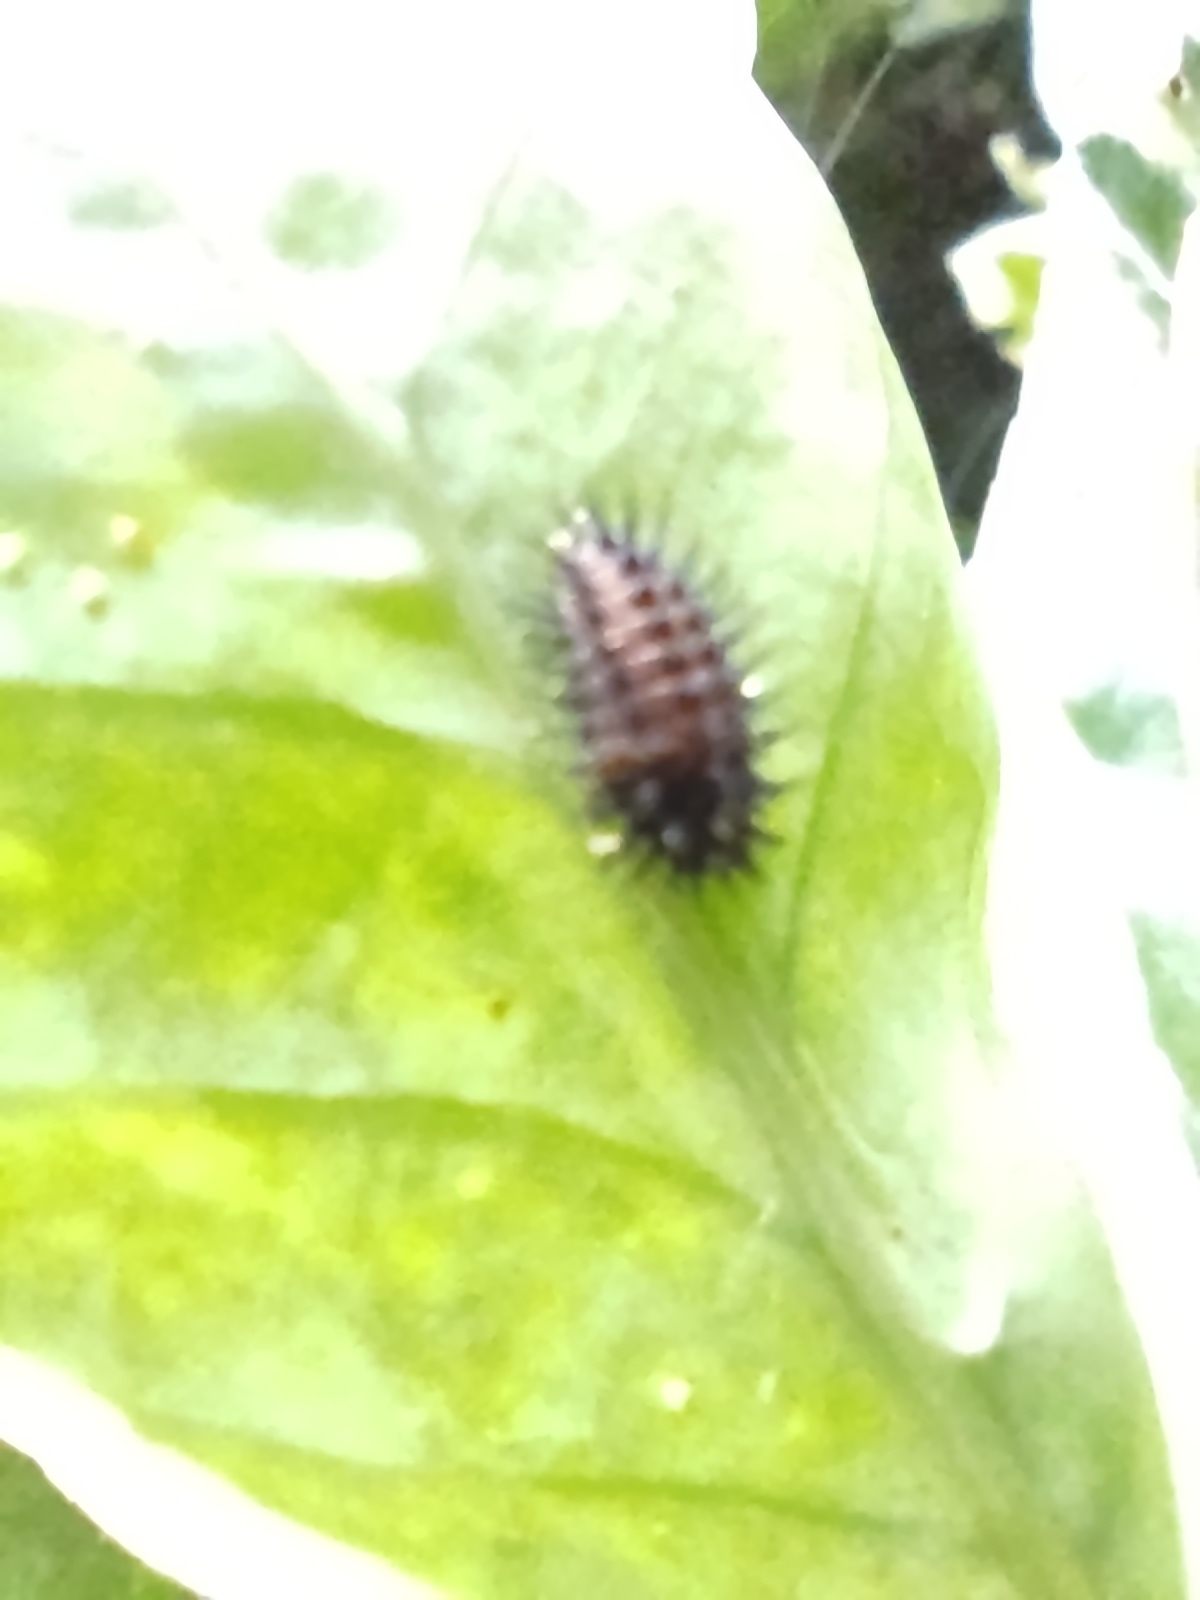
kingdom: Animalia
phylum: Arthropoda
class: Insecta
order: Coleoptera
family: Coccinellidae
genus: Chilocorus
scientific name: Chilocorus renipustulatus
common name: Kidney-spot ladybird
